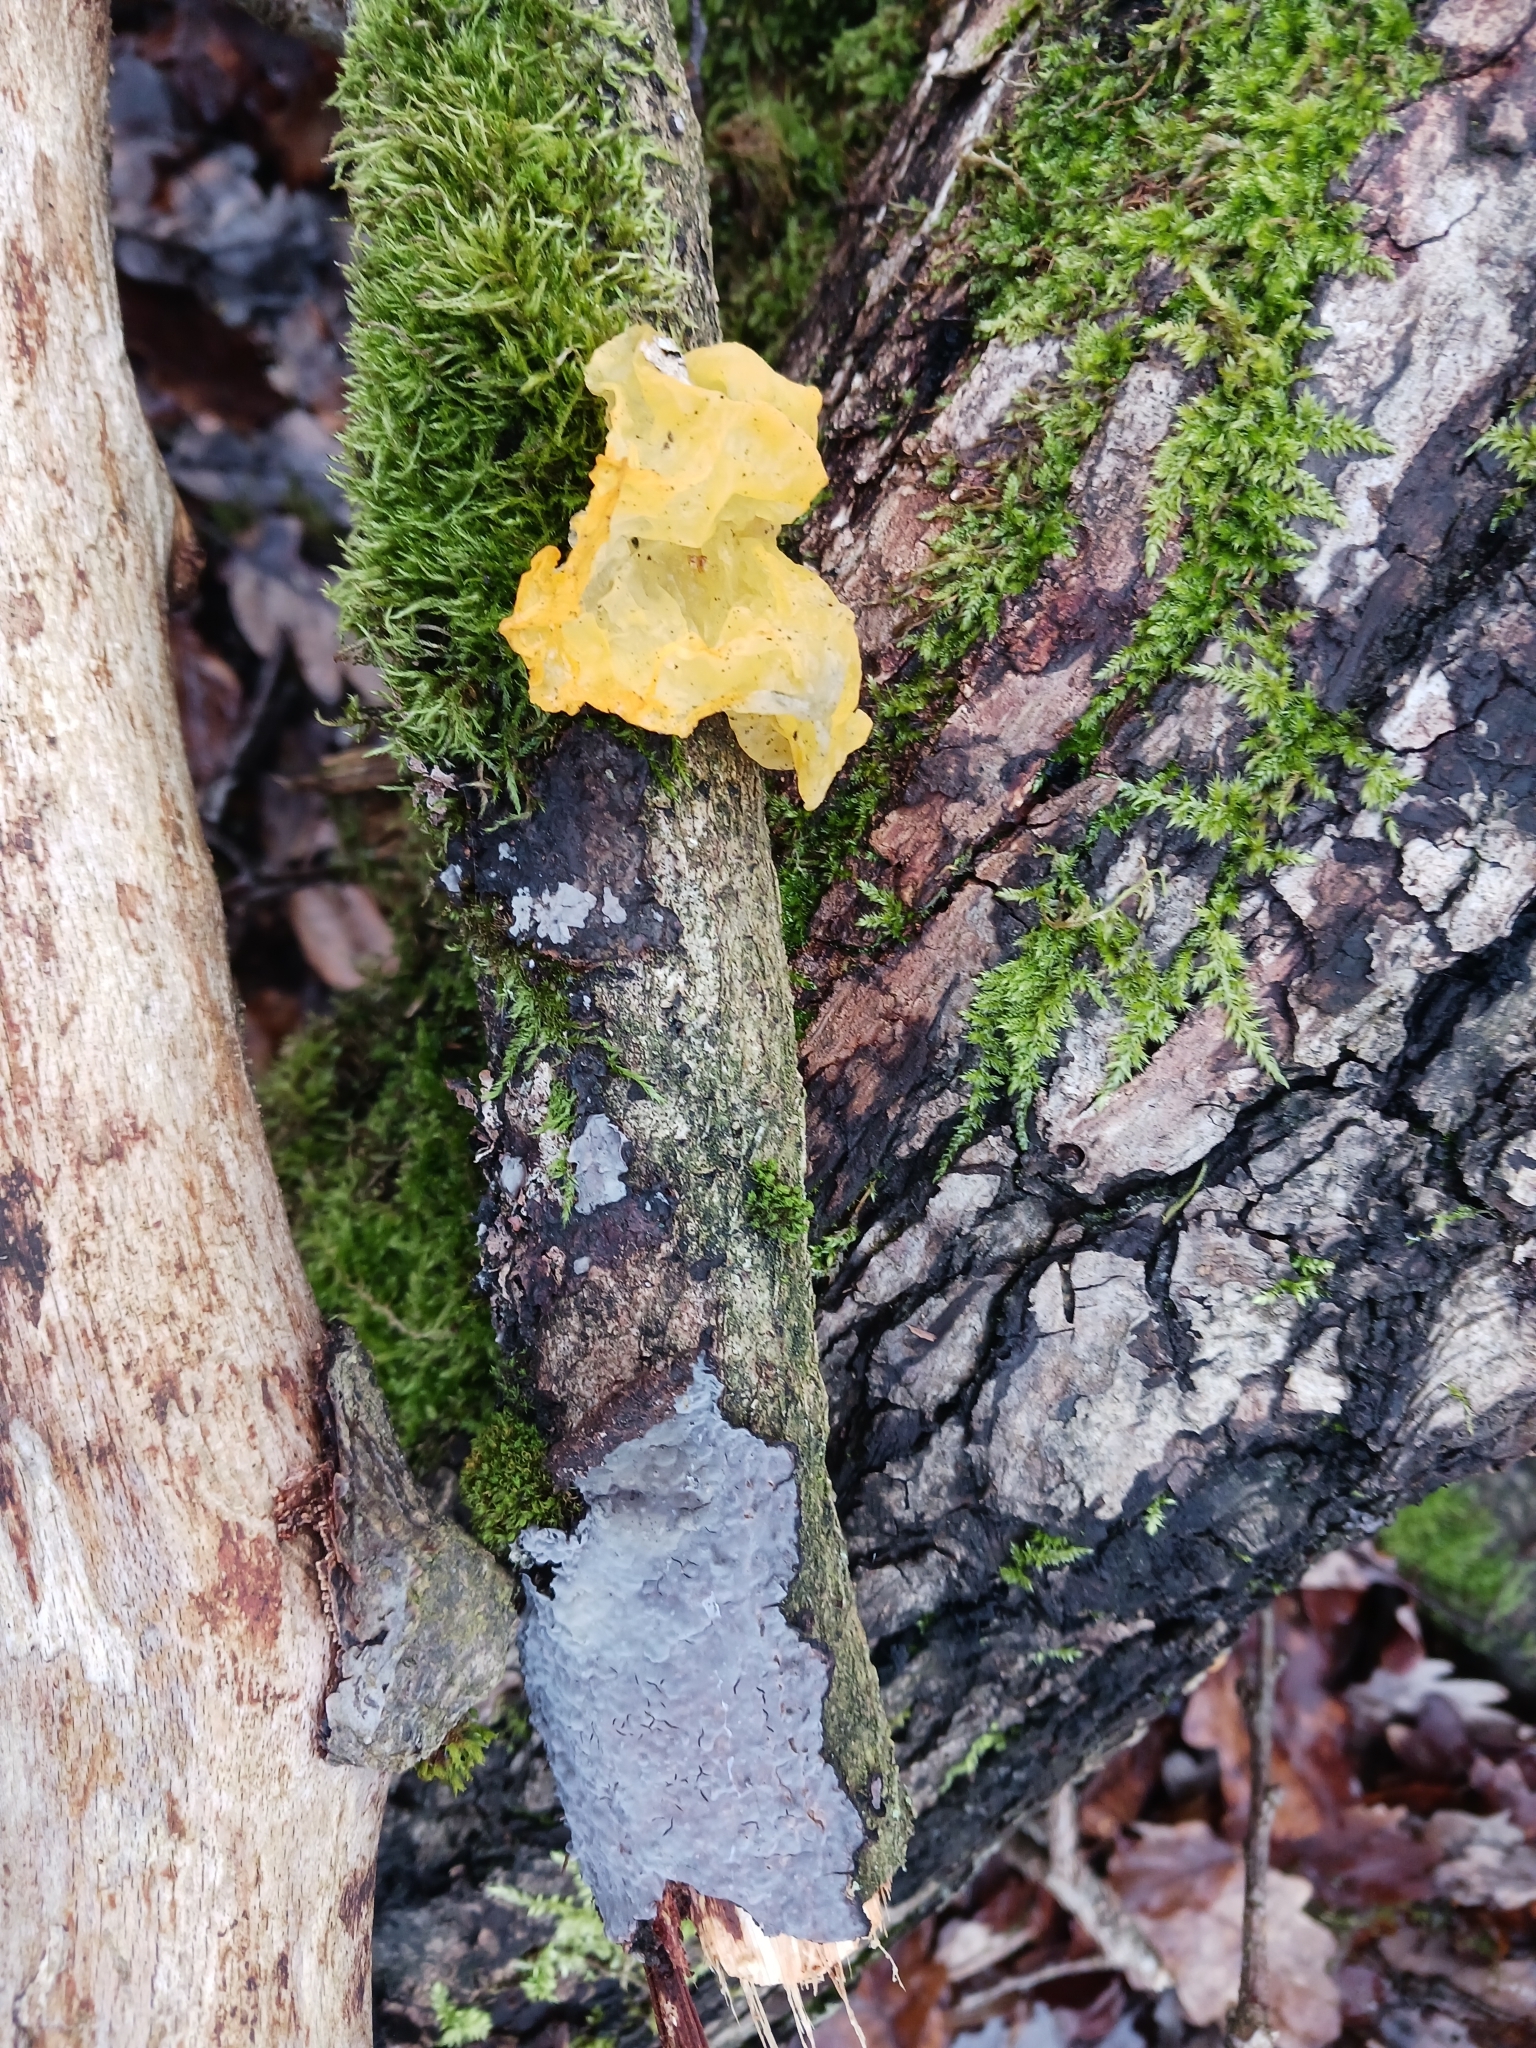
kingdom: Fungi
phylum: Basidiomycota
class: Tremellomycetes
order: Tremellales
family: Tremellaceae
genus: Tremella
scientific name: Tremella mesenterica
